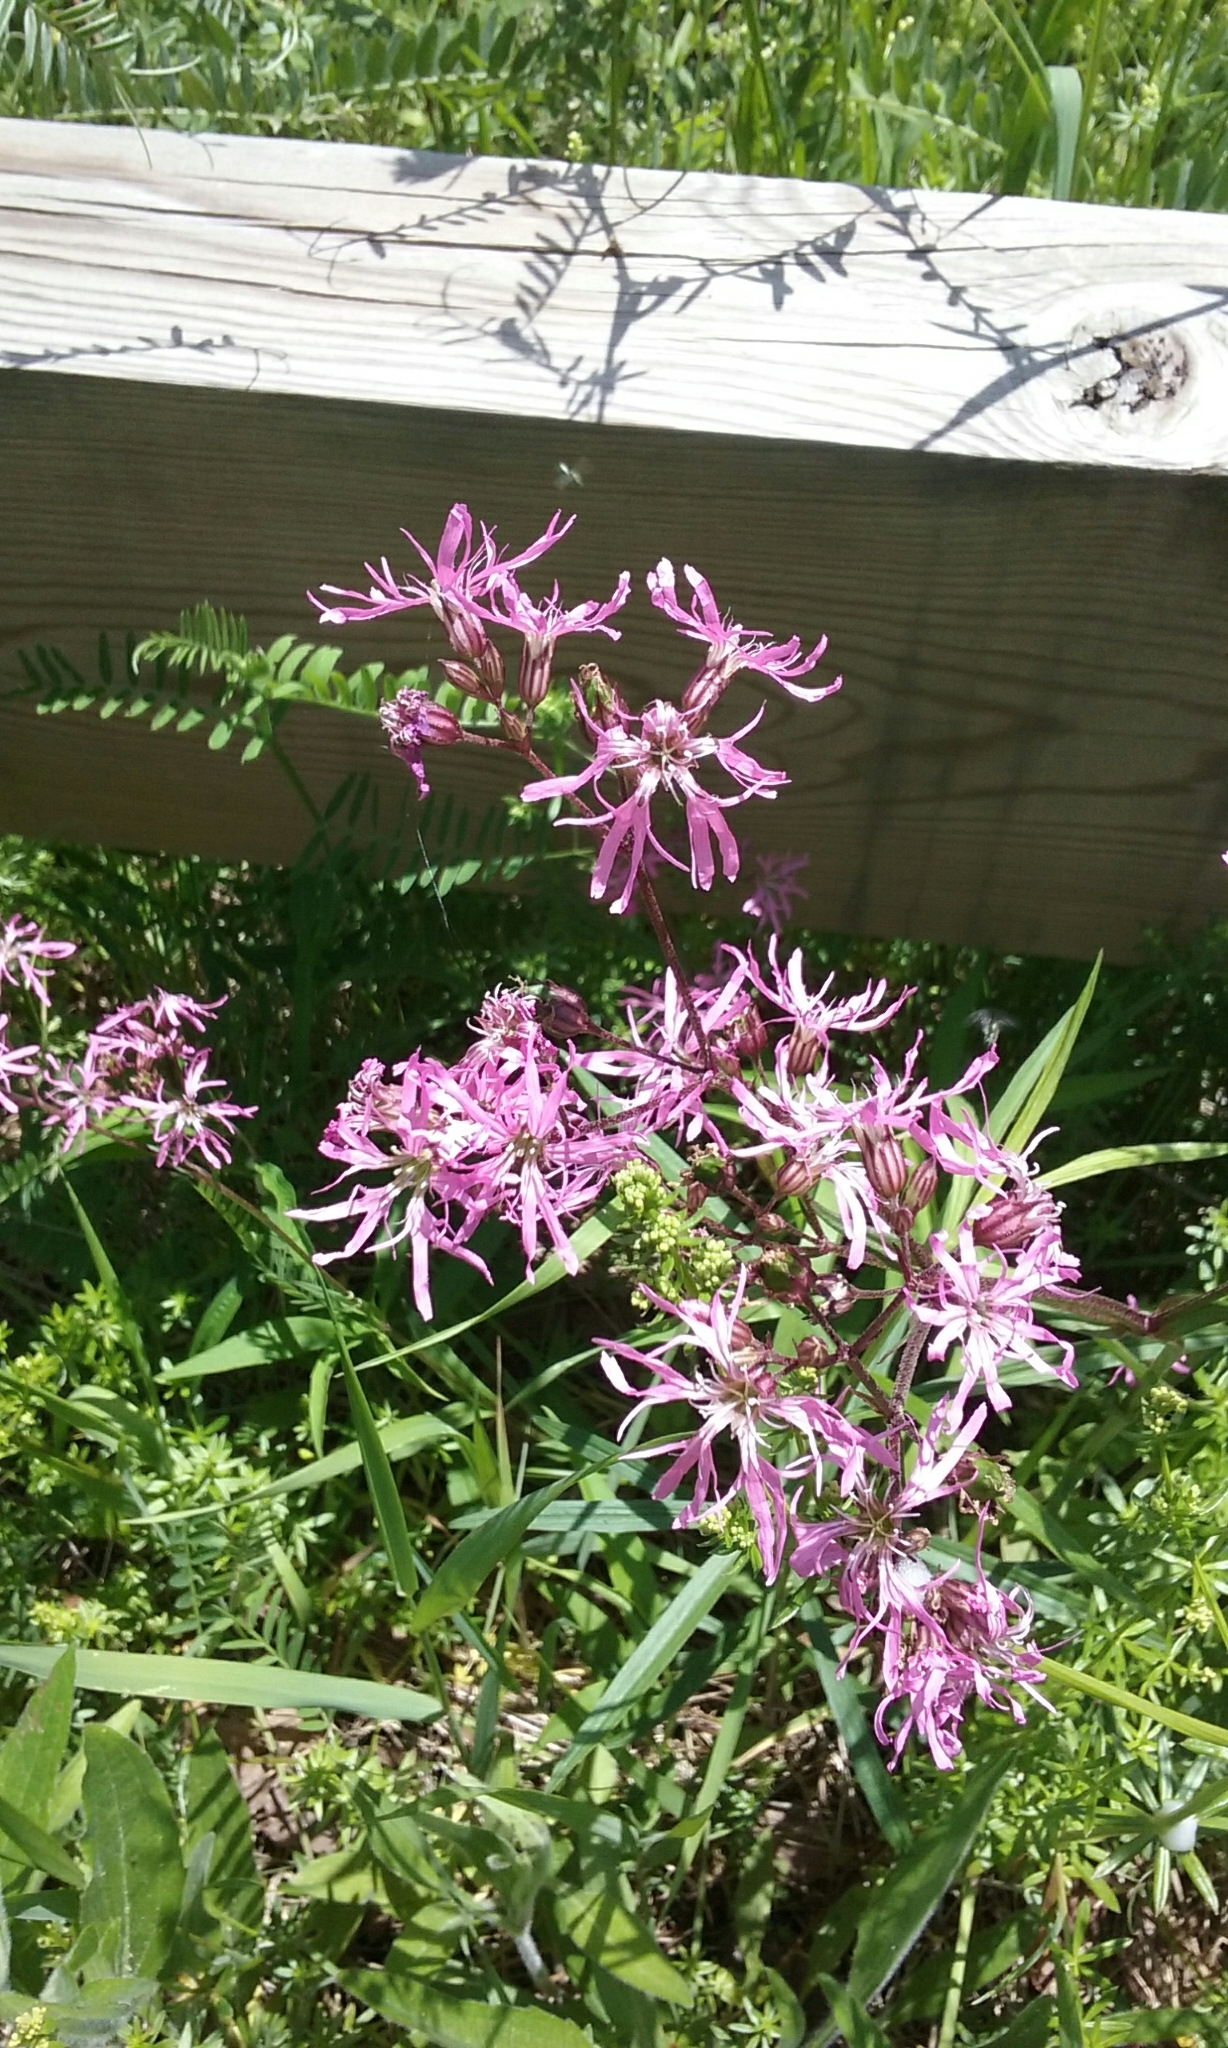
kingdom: Plantae
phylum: Tracheophyta
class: Magnoliopsida
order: Caryophyllales
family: Caryophyllaceae
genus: Silene
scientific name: Silene flos-cuculi
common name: Ragged-robin
